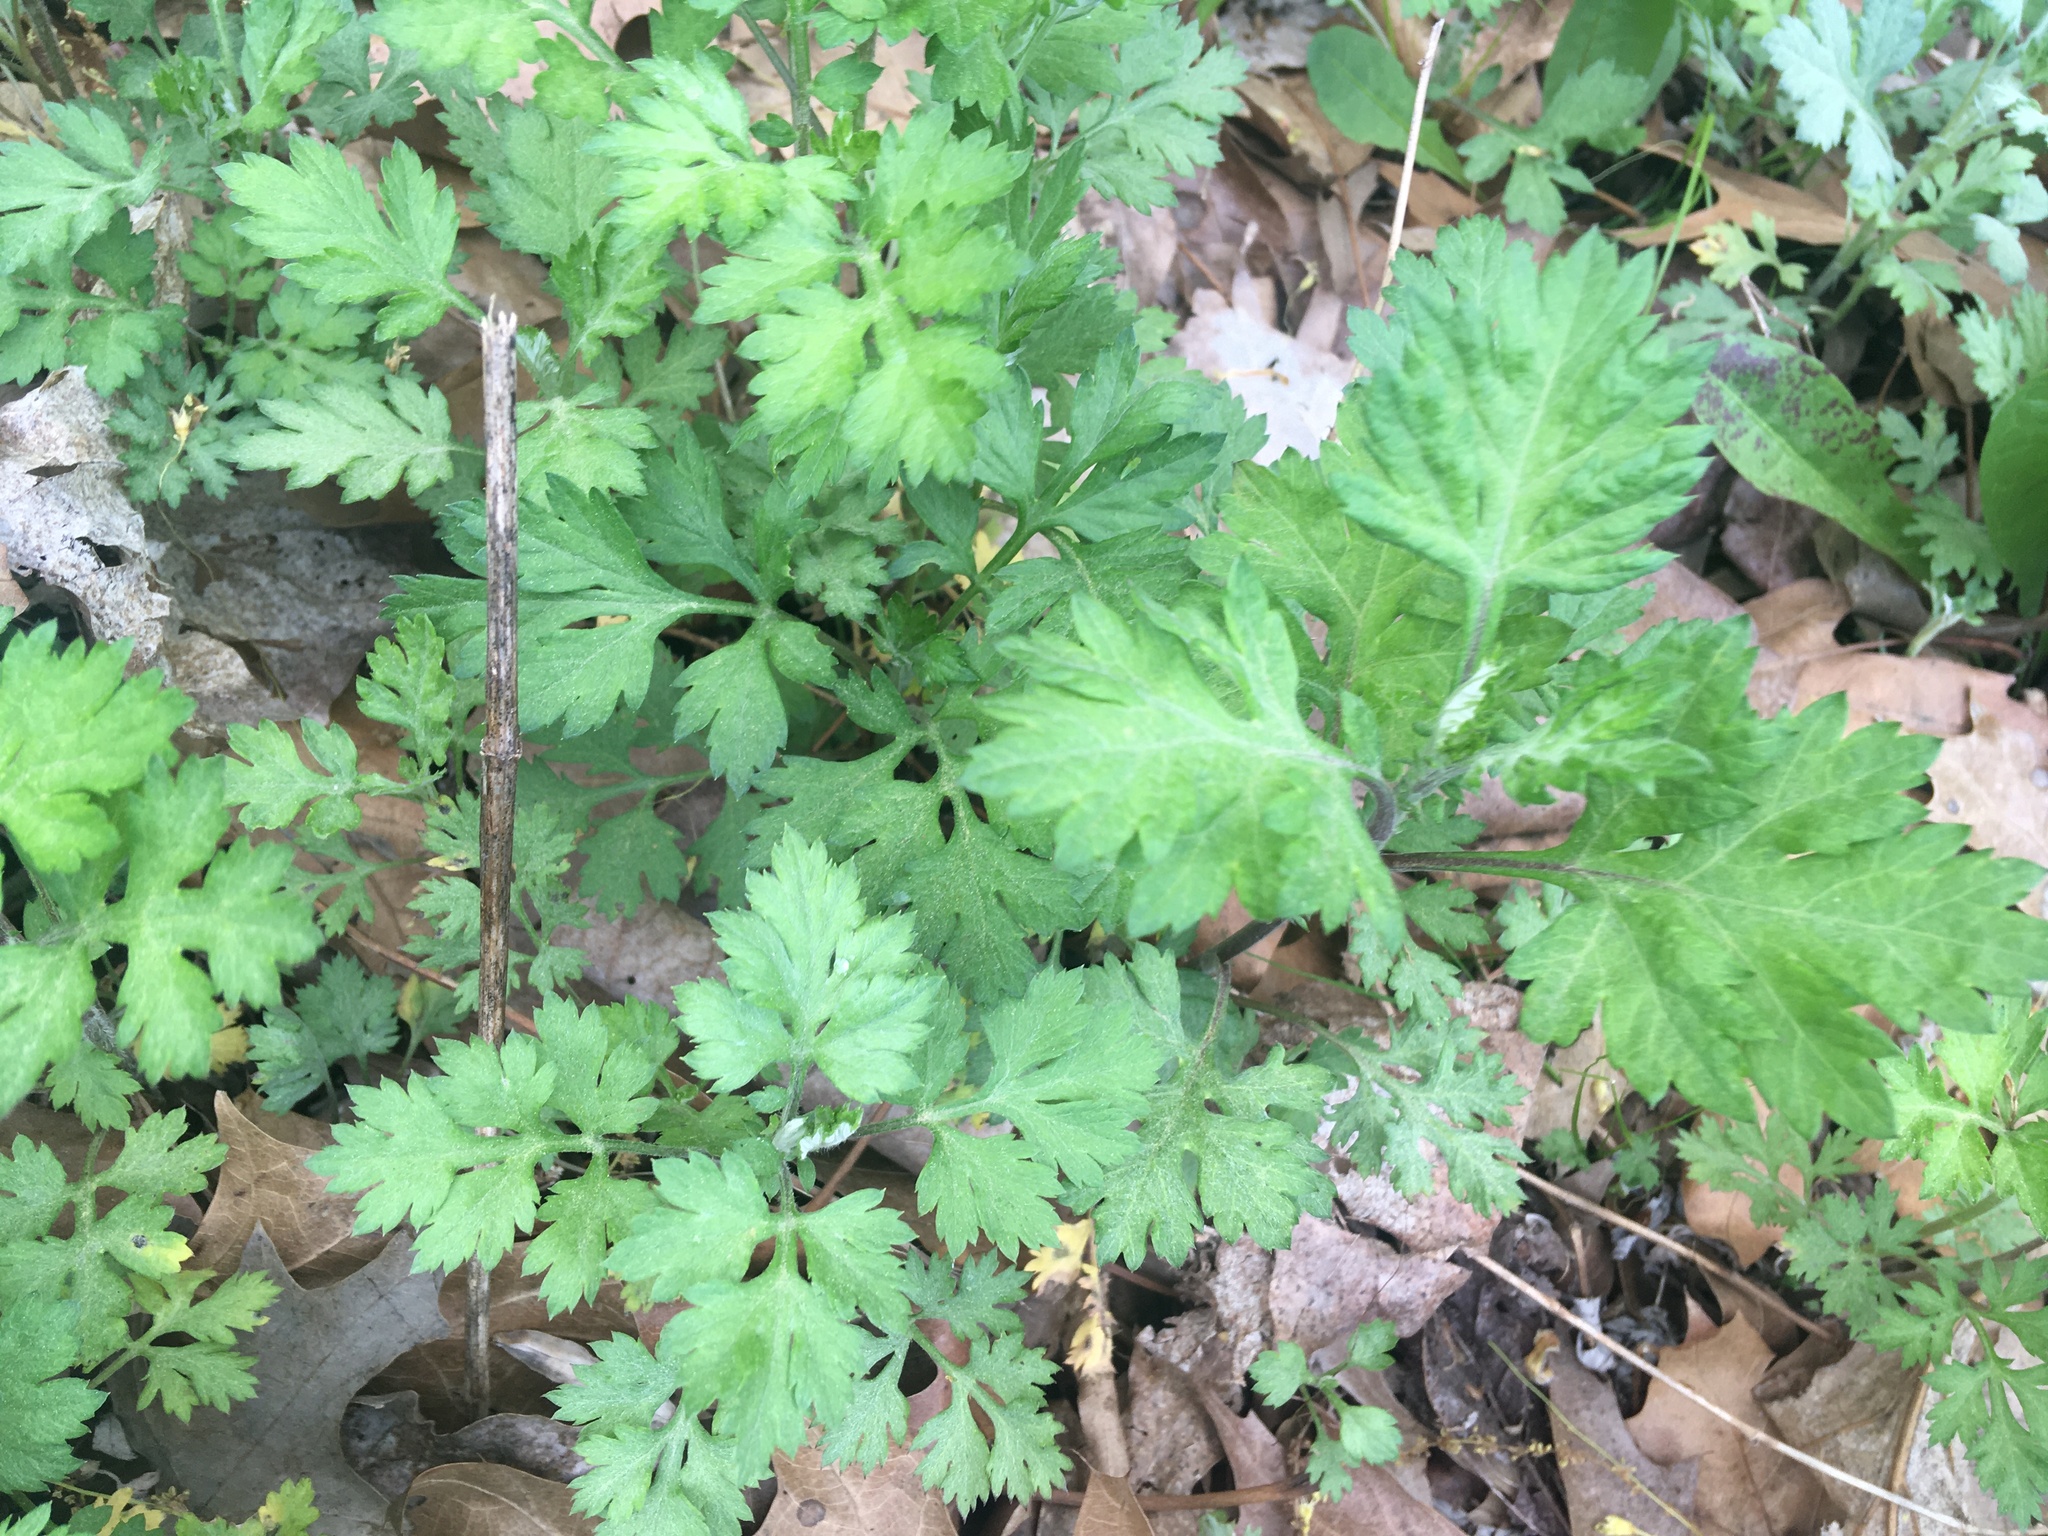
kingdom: Plantae
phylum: Tracheophyta
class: Magnoliopsida
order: Asterales
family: Asteraceae
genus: Artemisia
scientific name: Artemisia vulgaris
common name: Mugwort
